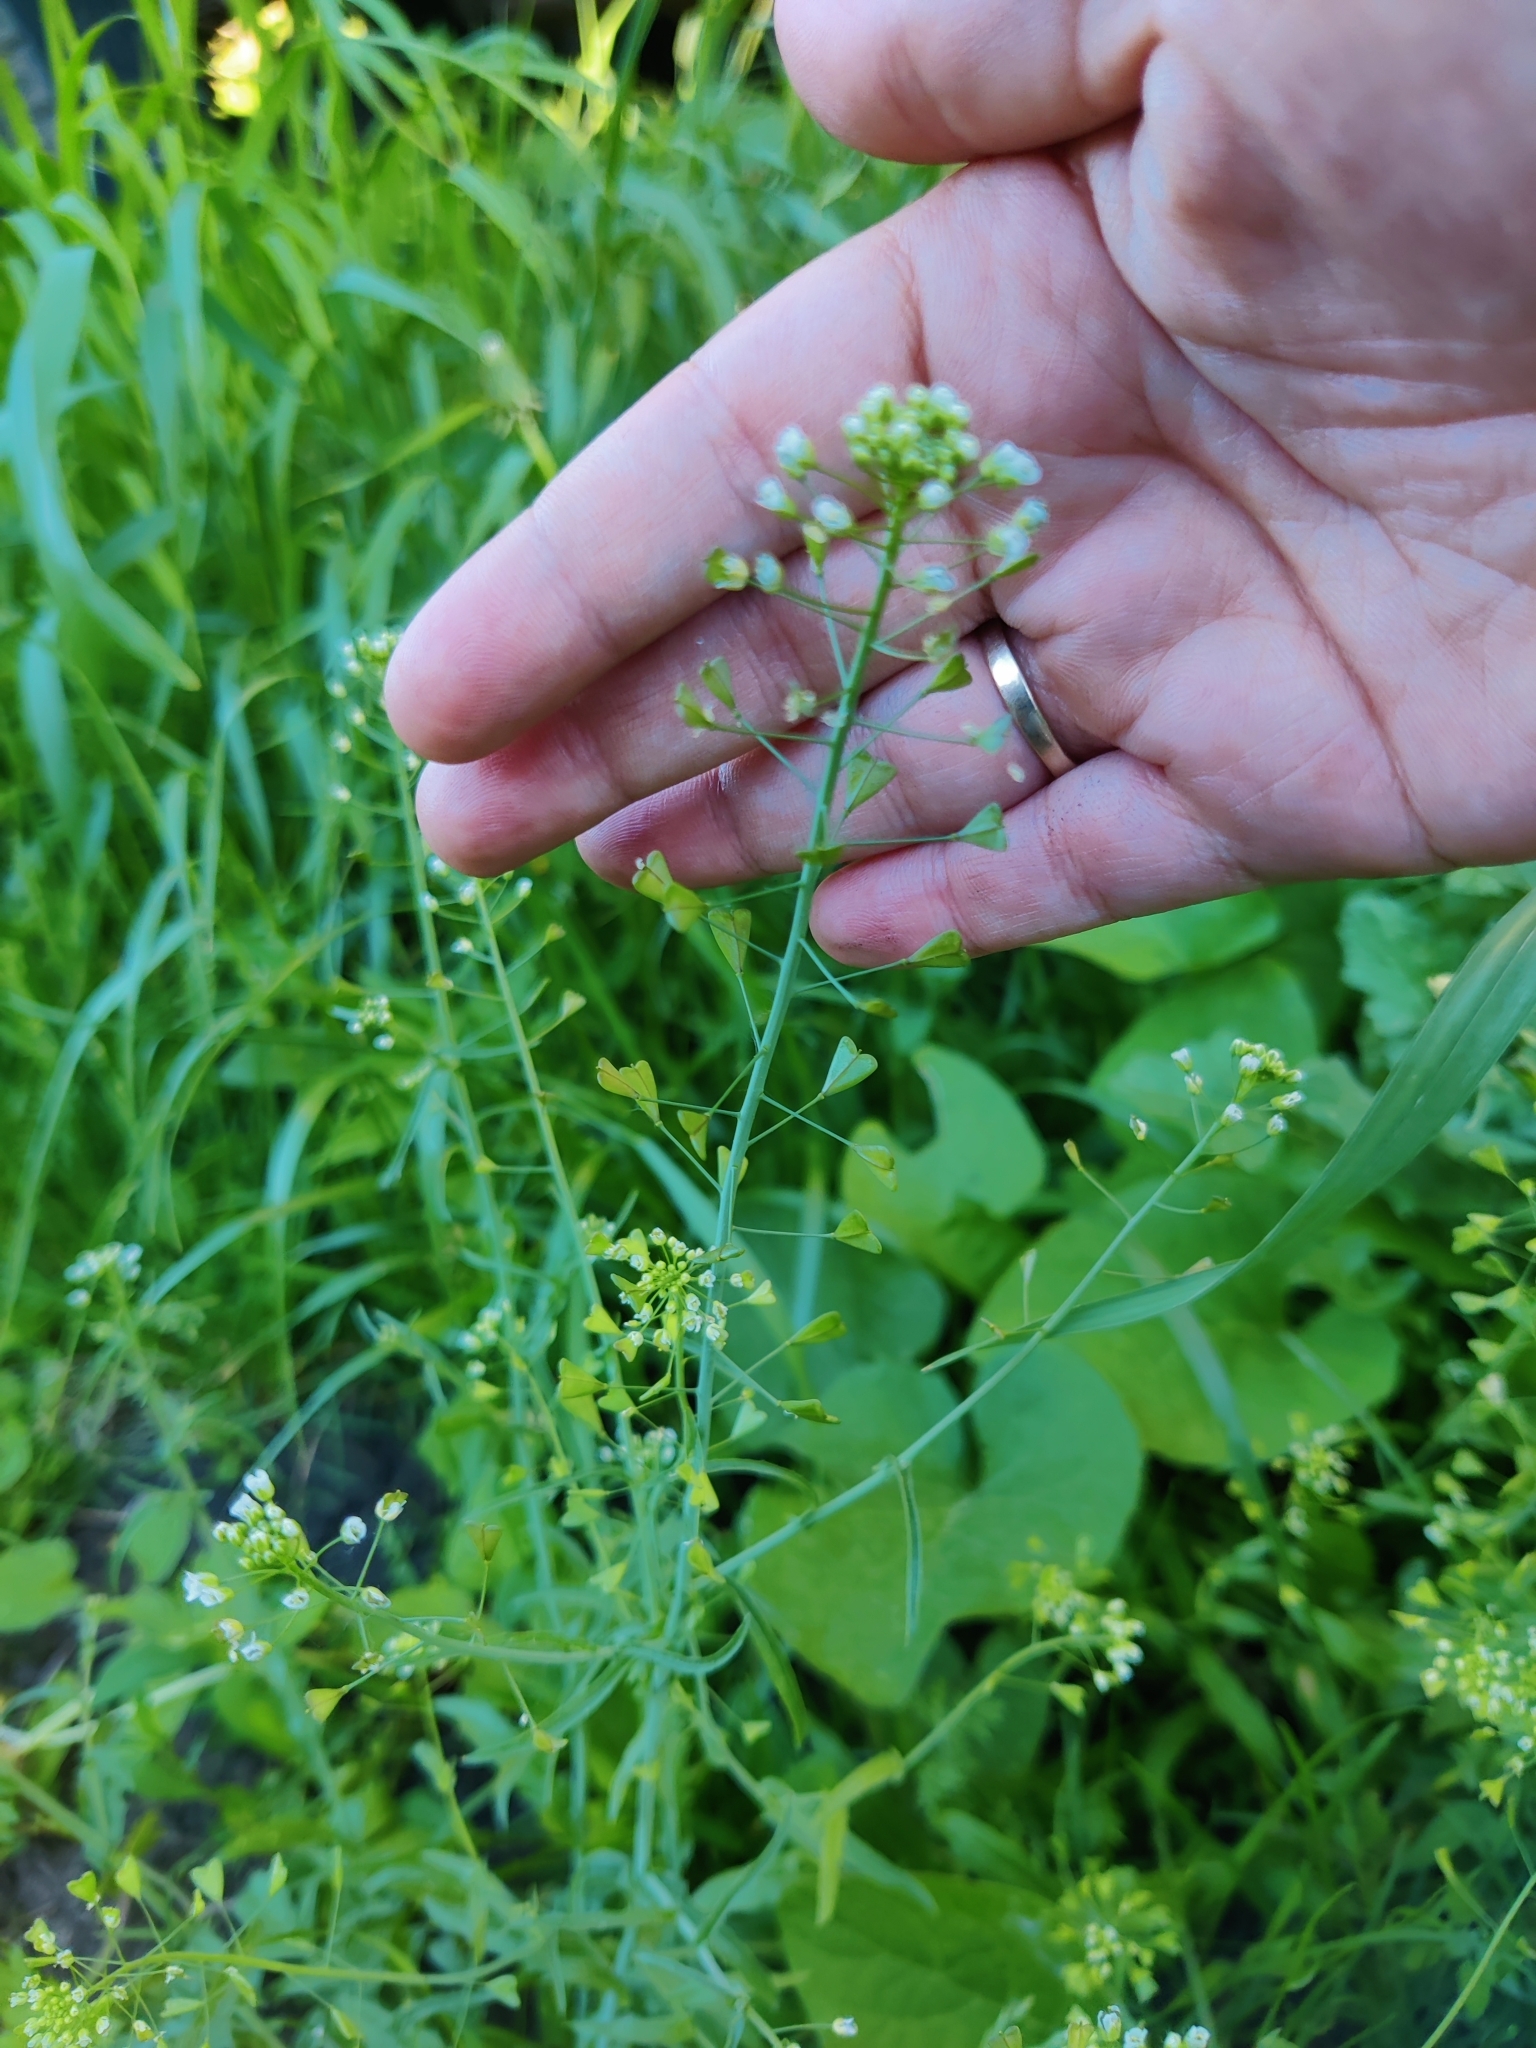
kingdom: Plantae
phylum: Tracheophyta
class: Magnoliopsida
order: Brassicales
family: Brassicaceae
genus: Capsella
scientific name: Capsella bursa-pastoris
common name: Shepherd's purse
